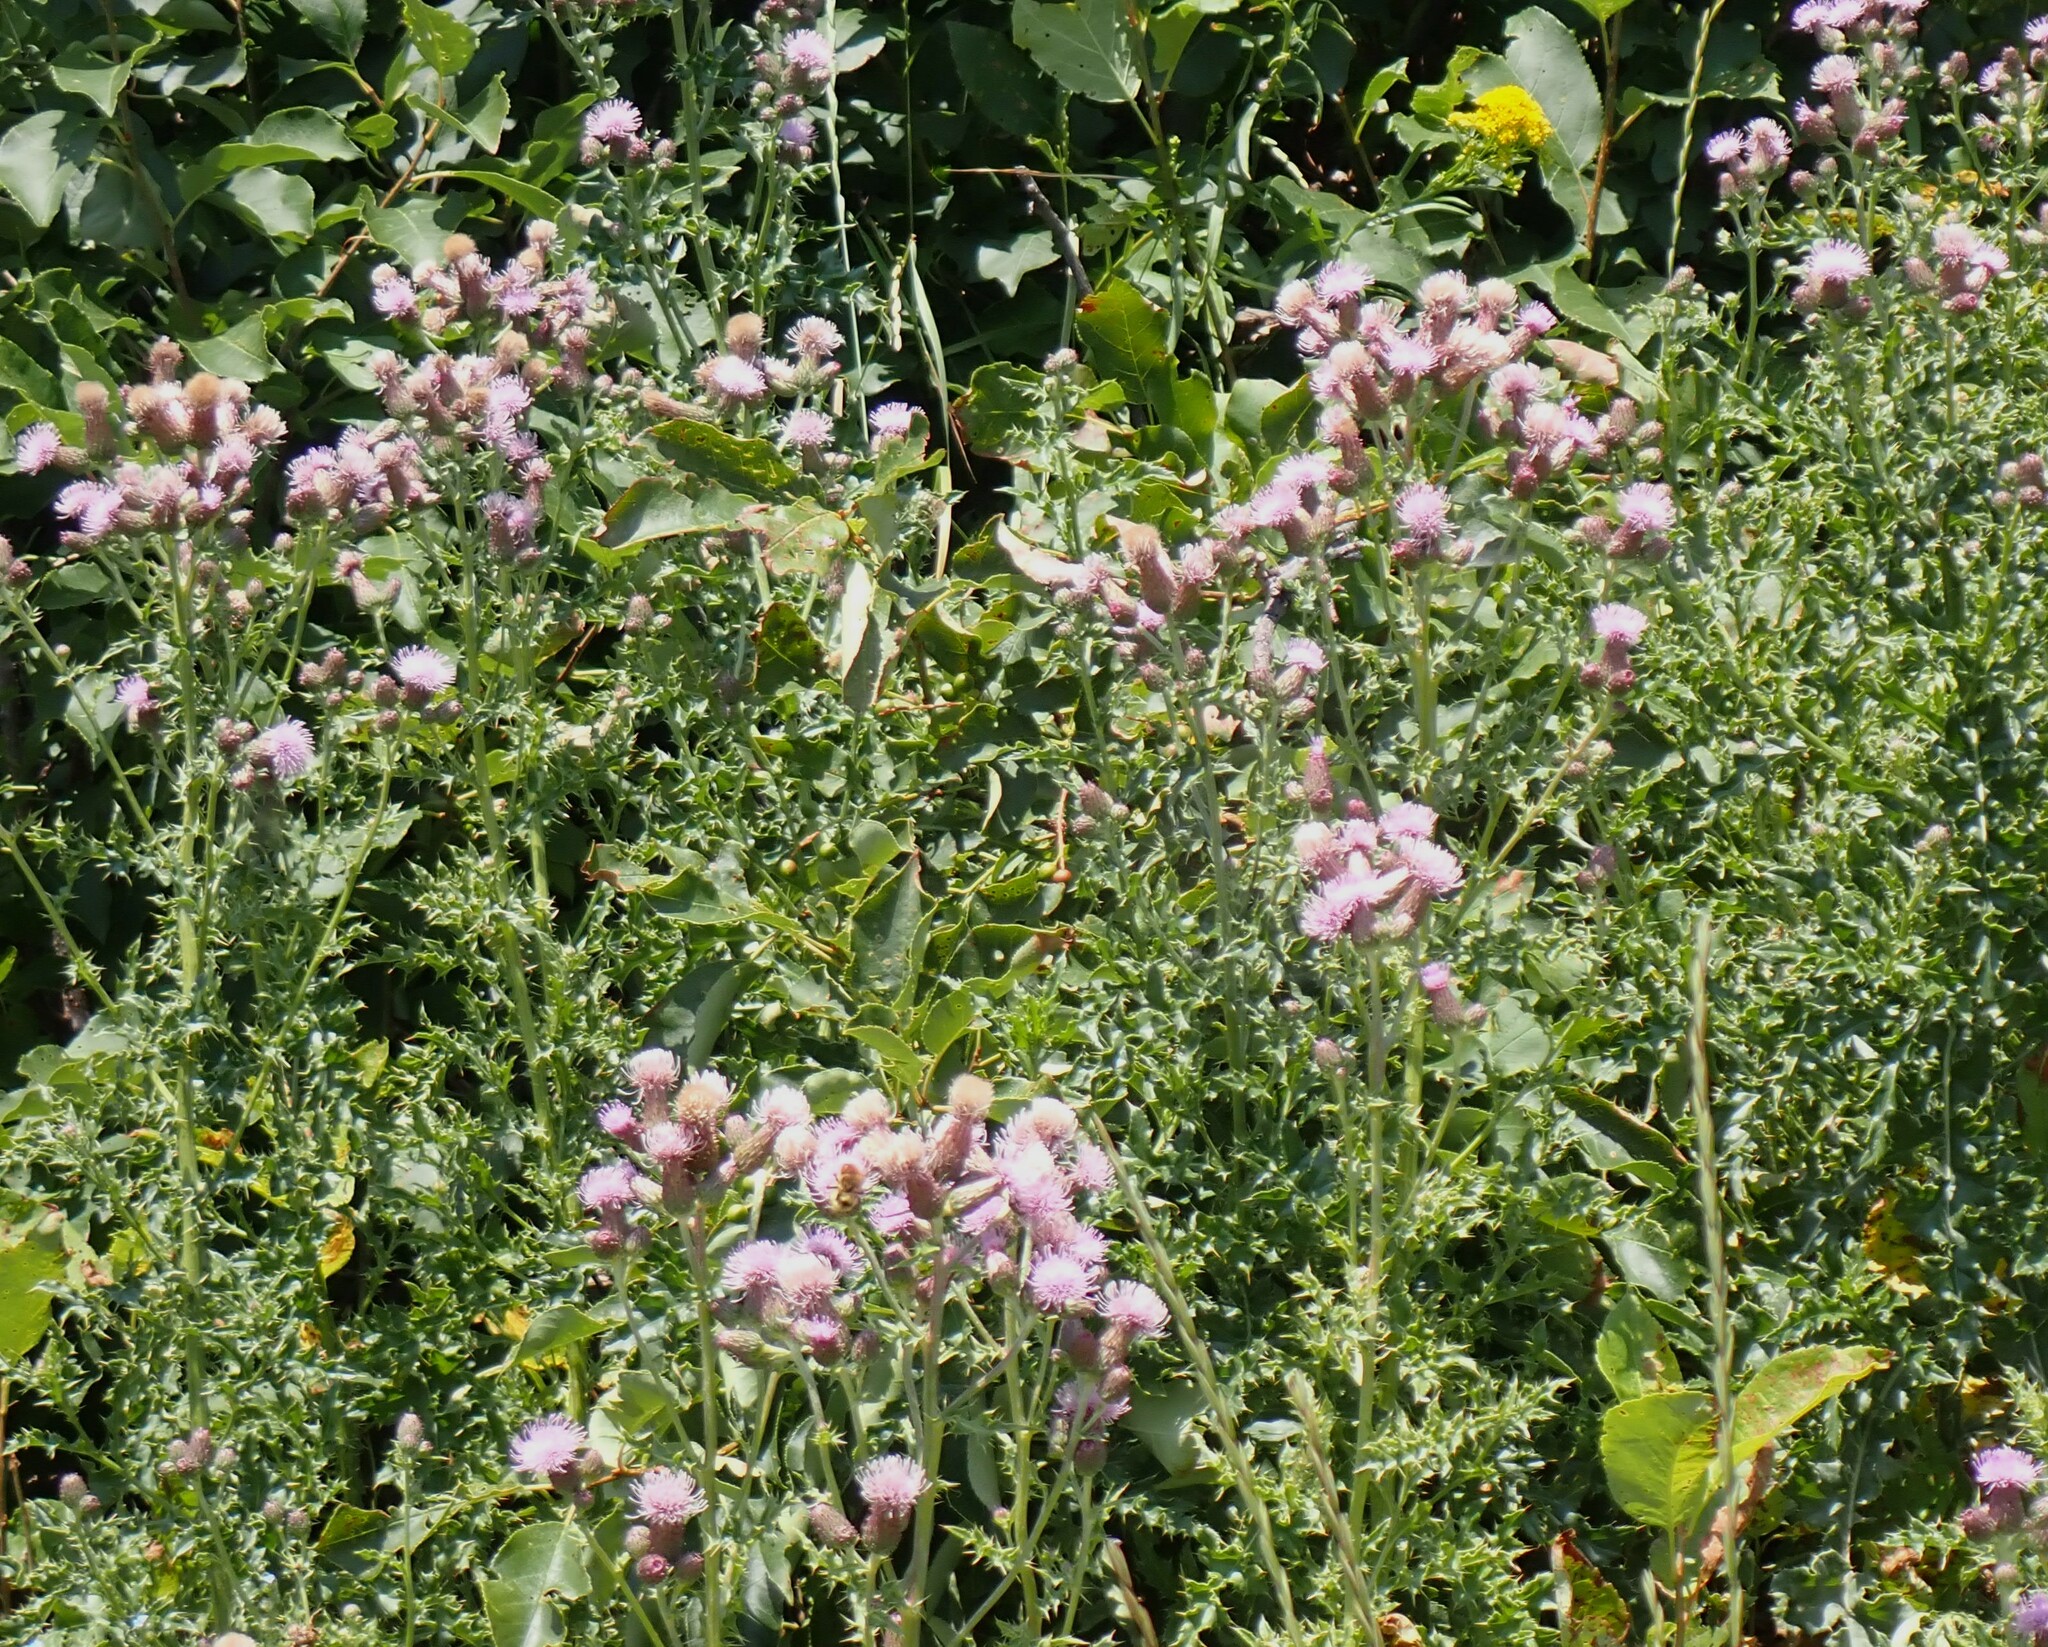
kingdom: Plantae
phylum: Tracheophyta
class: Magnoliopsida
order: Asterales
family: Asteraceae
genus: Cirsium
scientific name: Cirsium arvense
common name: Creeping thistle
